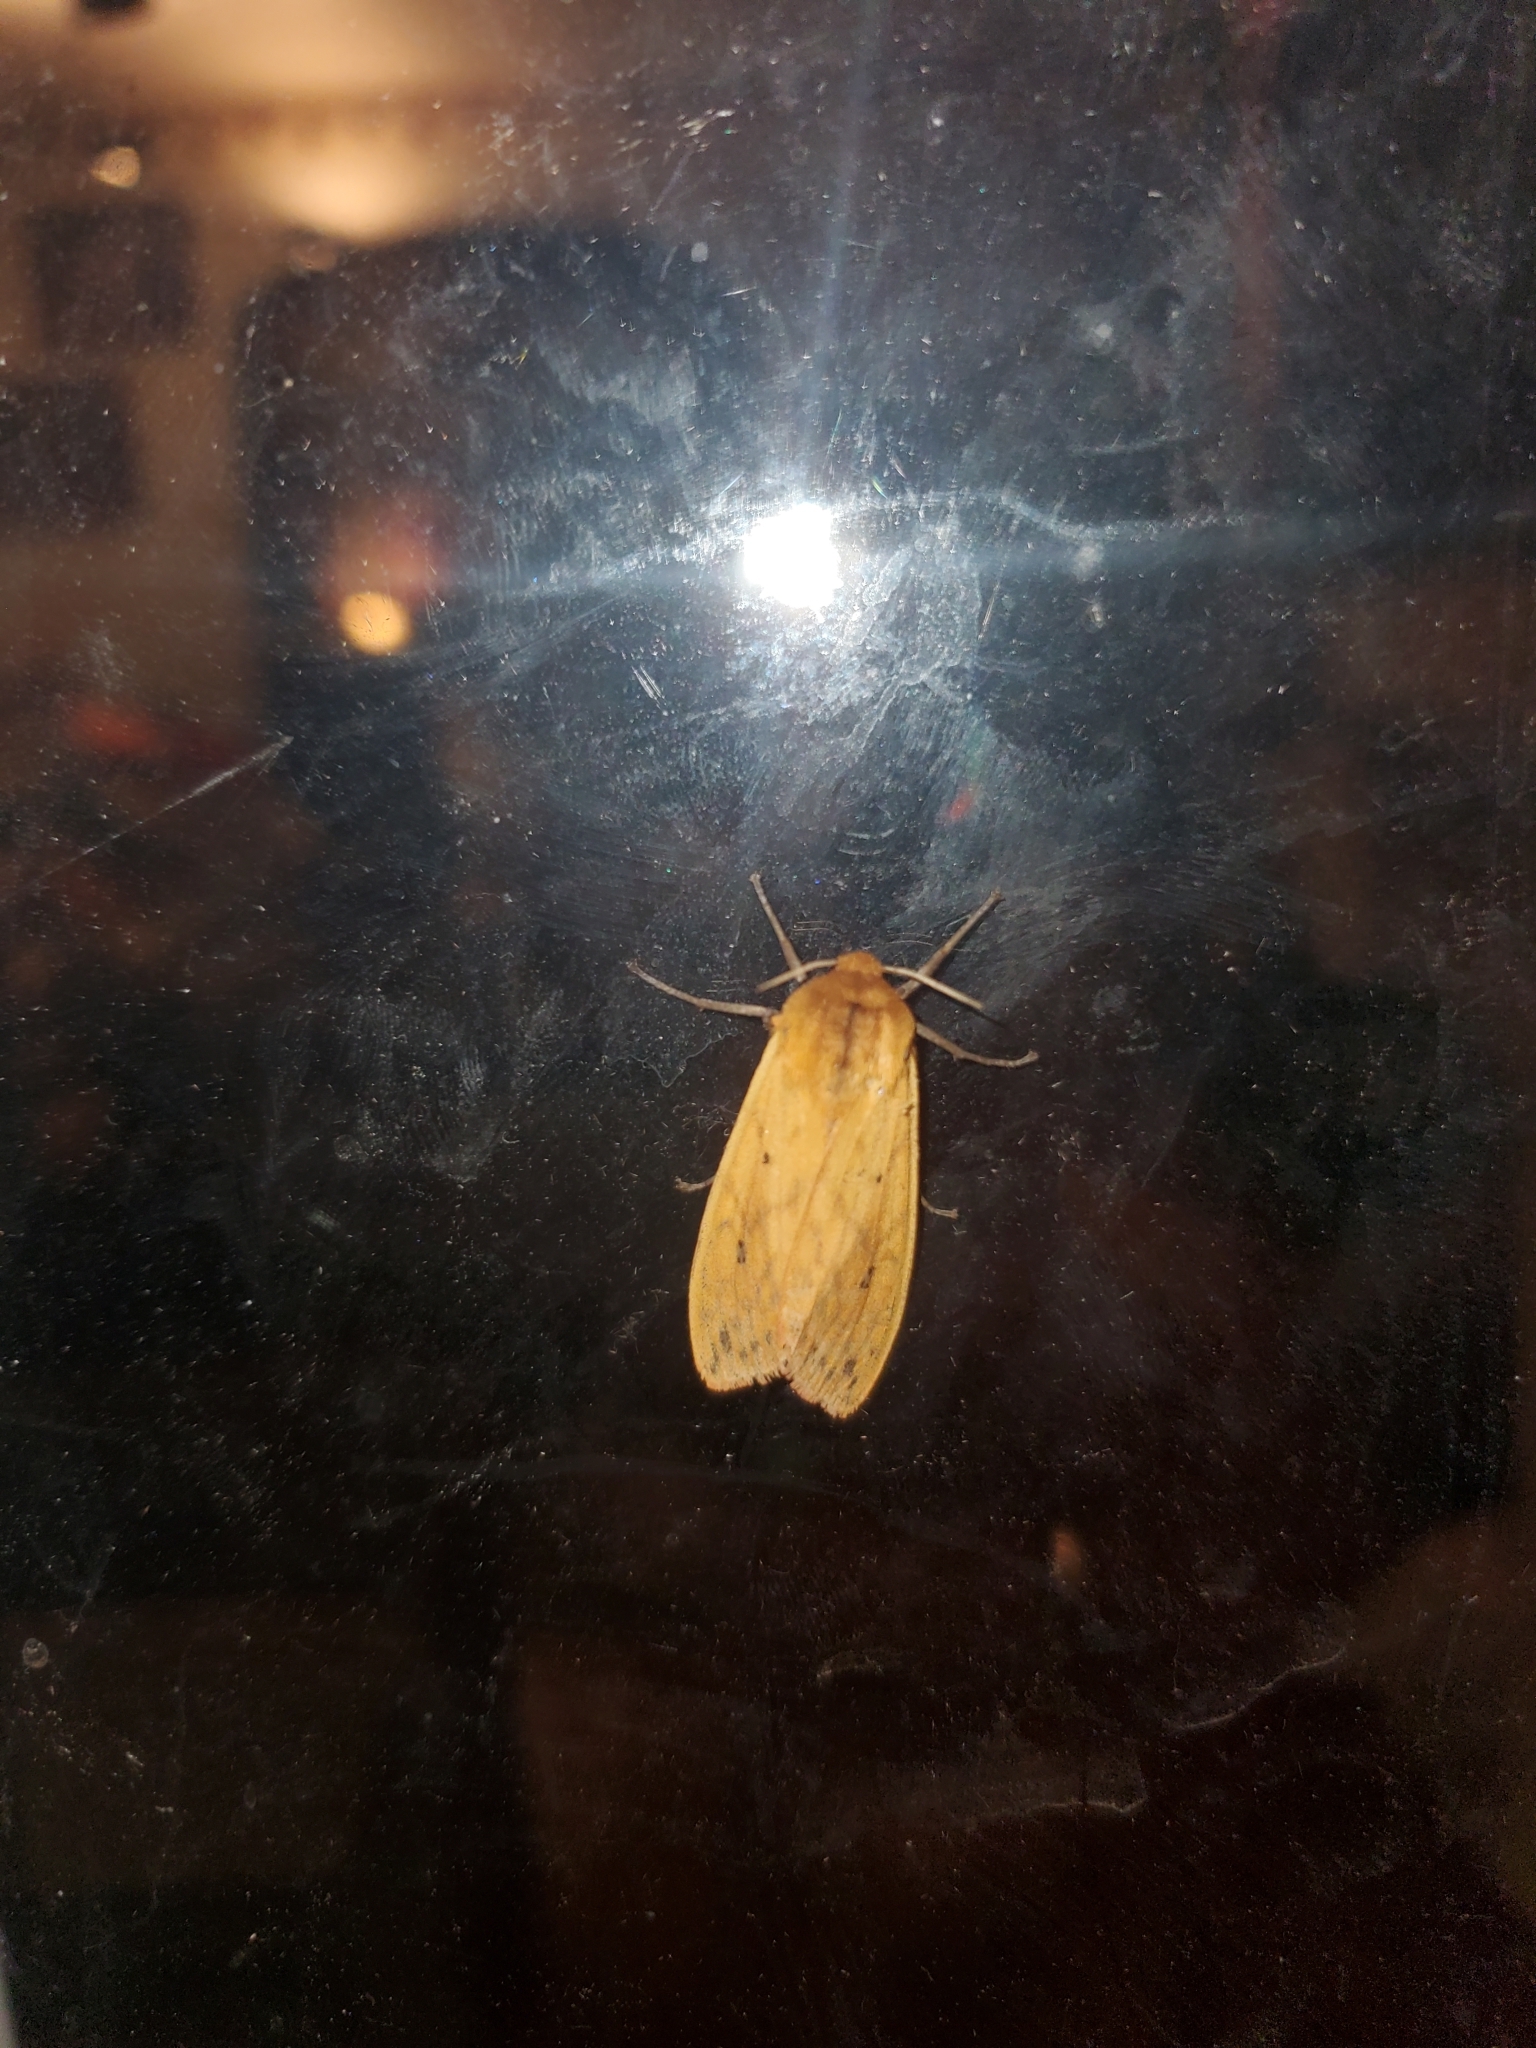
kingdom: Animalia
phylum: Arthropoda
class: Insecta
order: Lepidoptera
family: Erebidae
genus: Pyrrharctia
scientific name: Pyrrharctia isabella
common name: Isabella tiger moth
